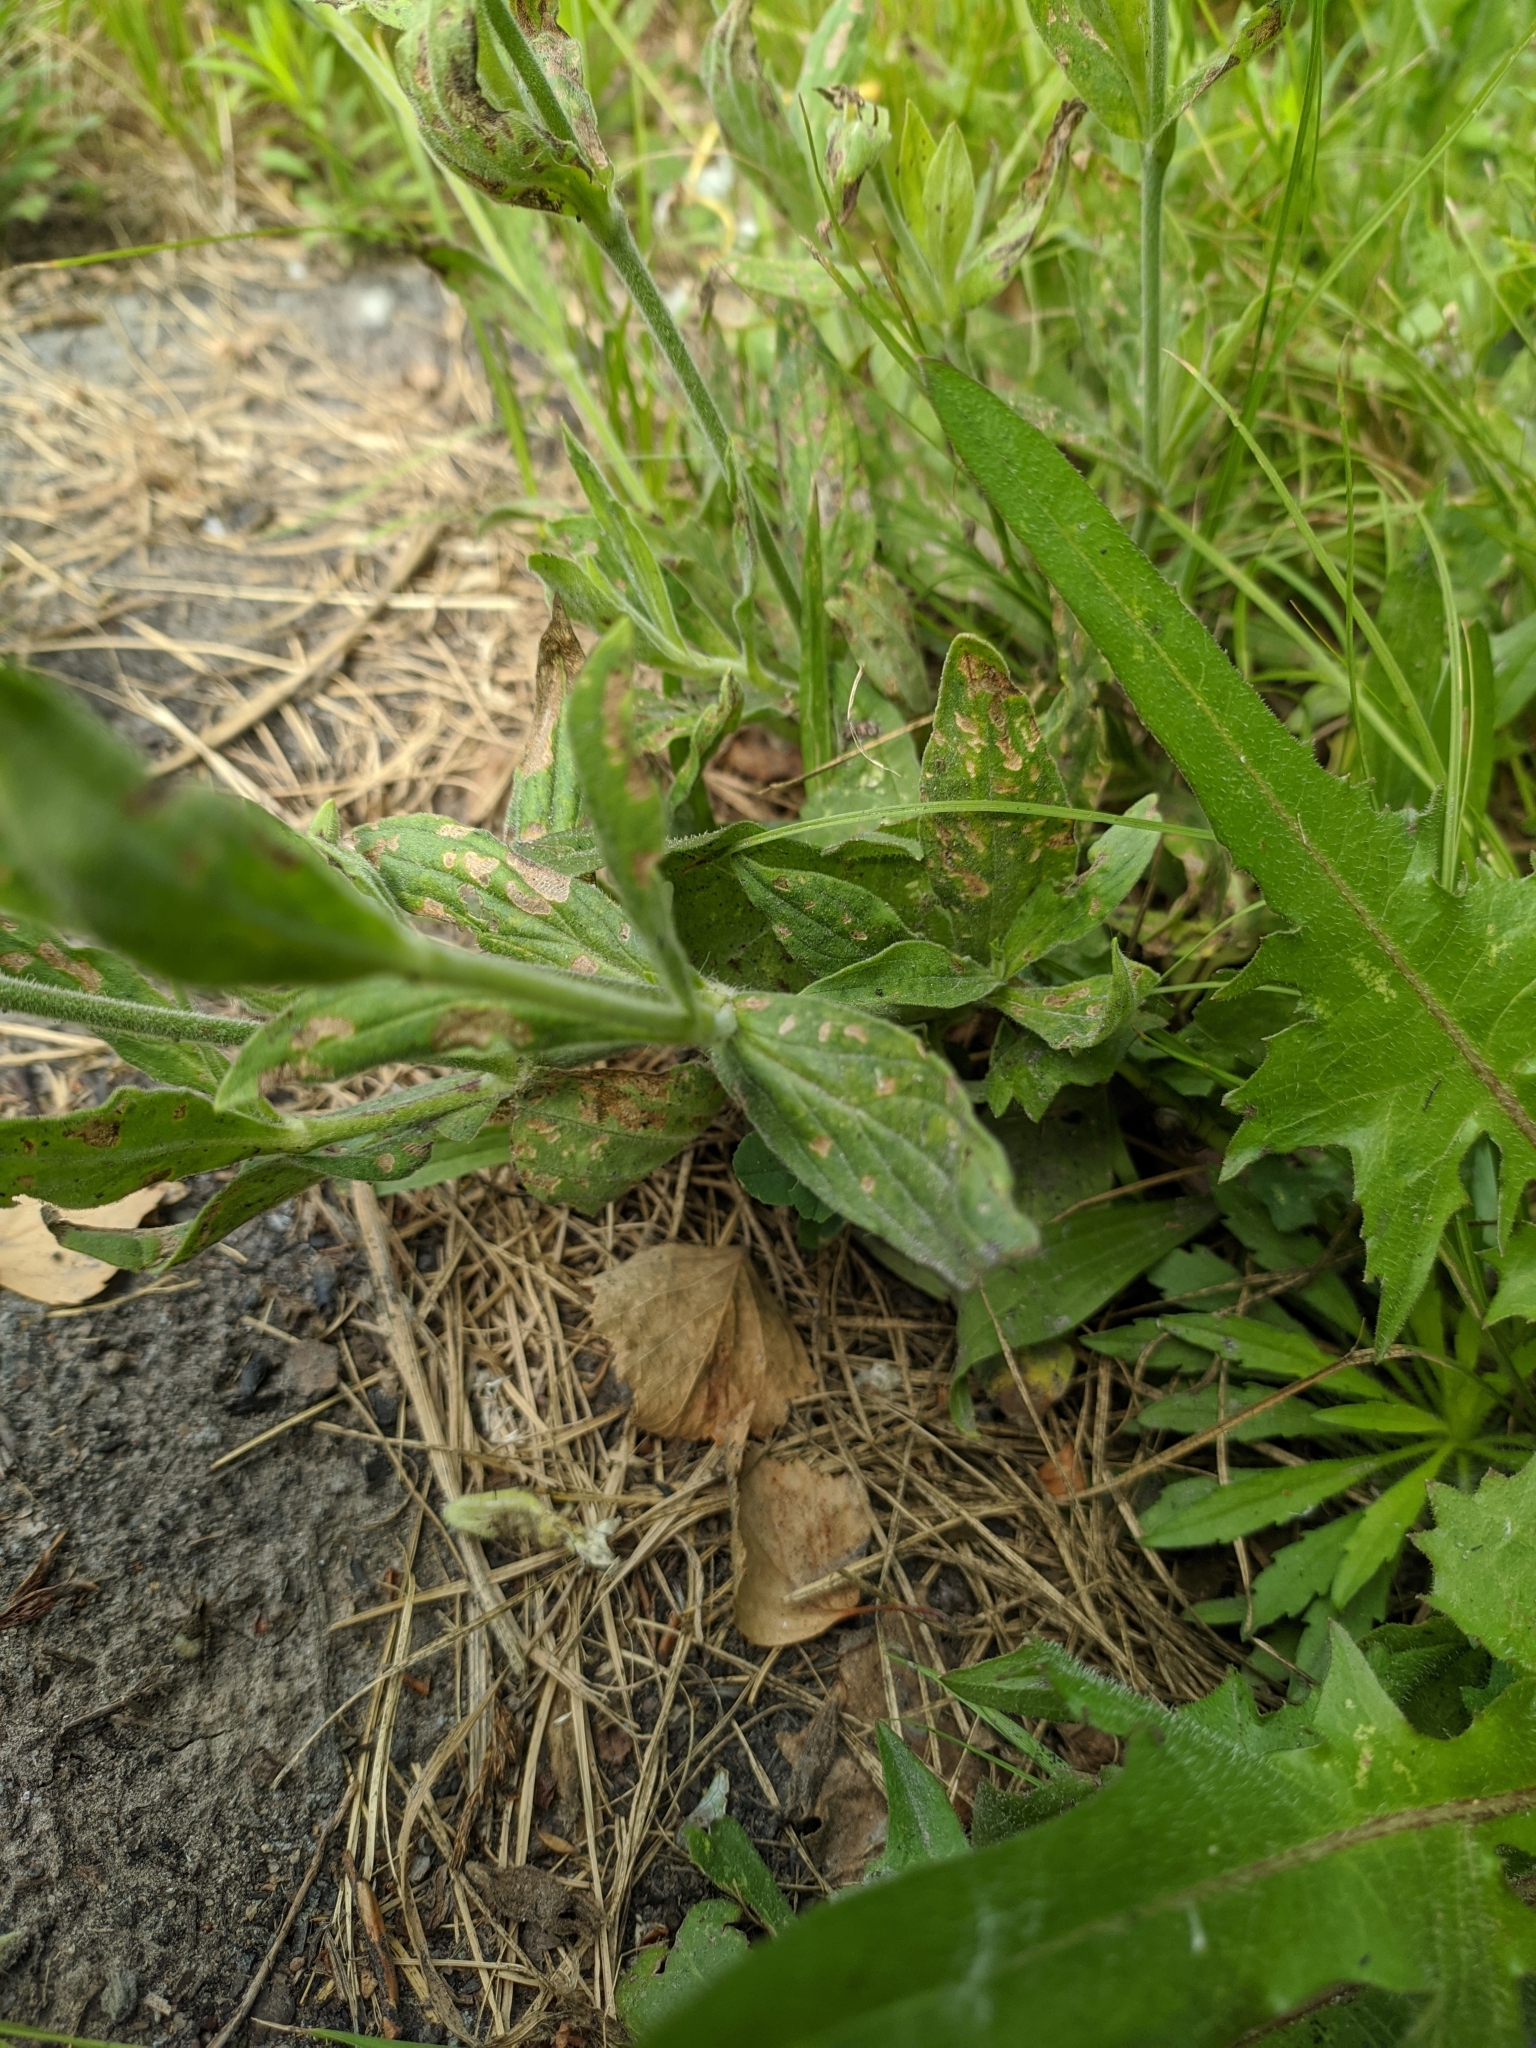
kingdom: Plantae
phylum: Tracheophyta
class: Magnoliopsida
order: Caryophyllales
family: Caryophyllaceae
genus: Silene
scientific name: Silene latifolia
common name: White campion
